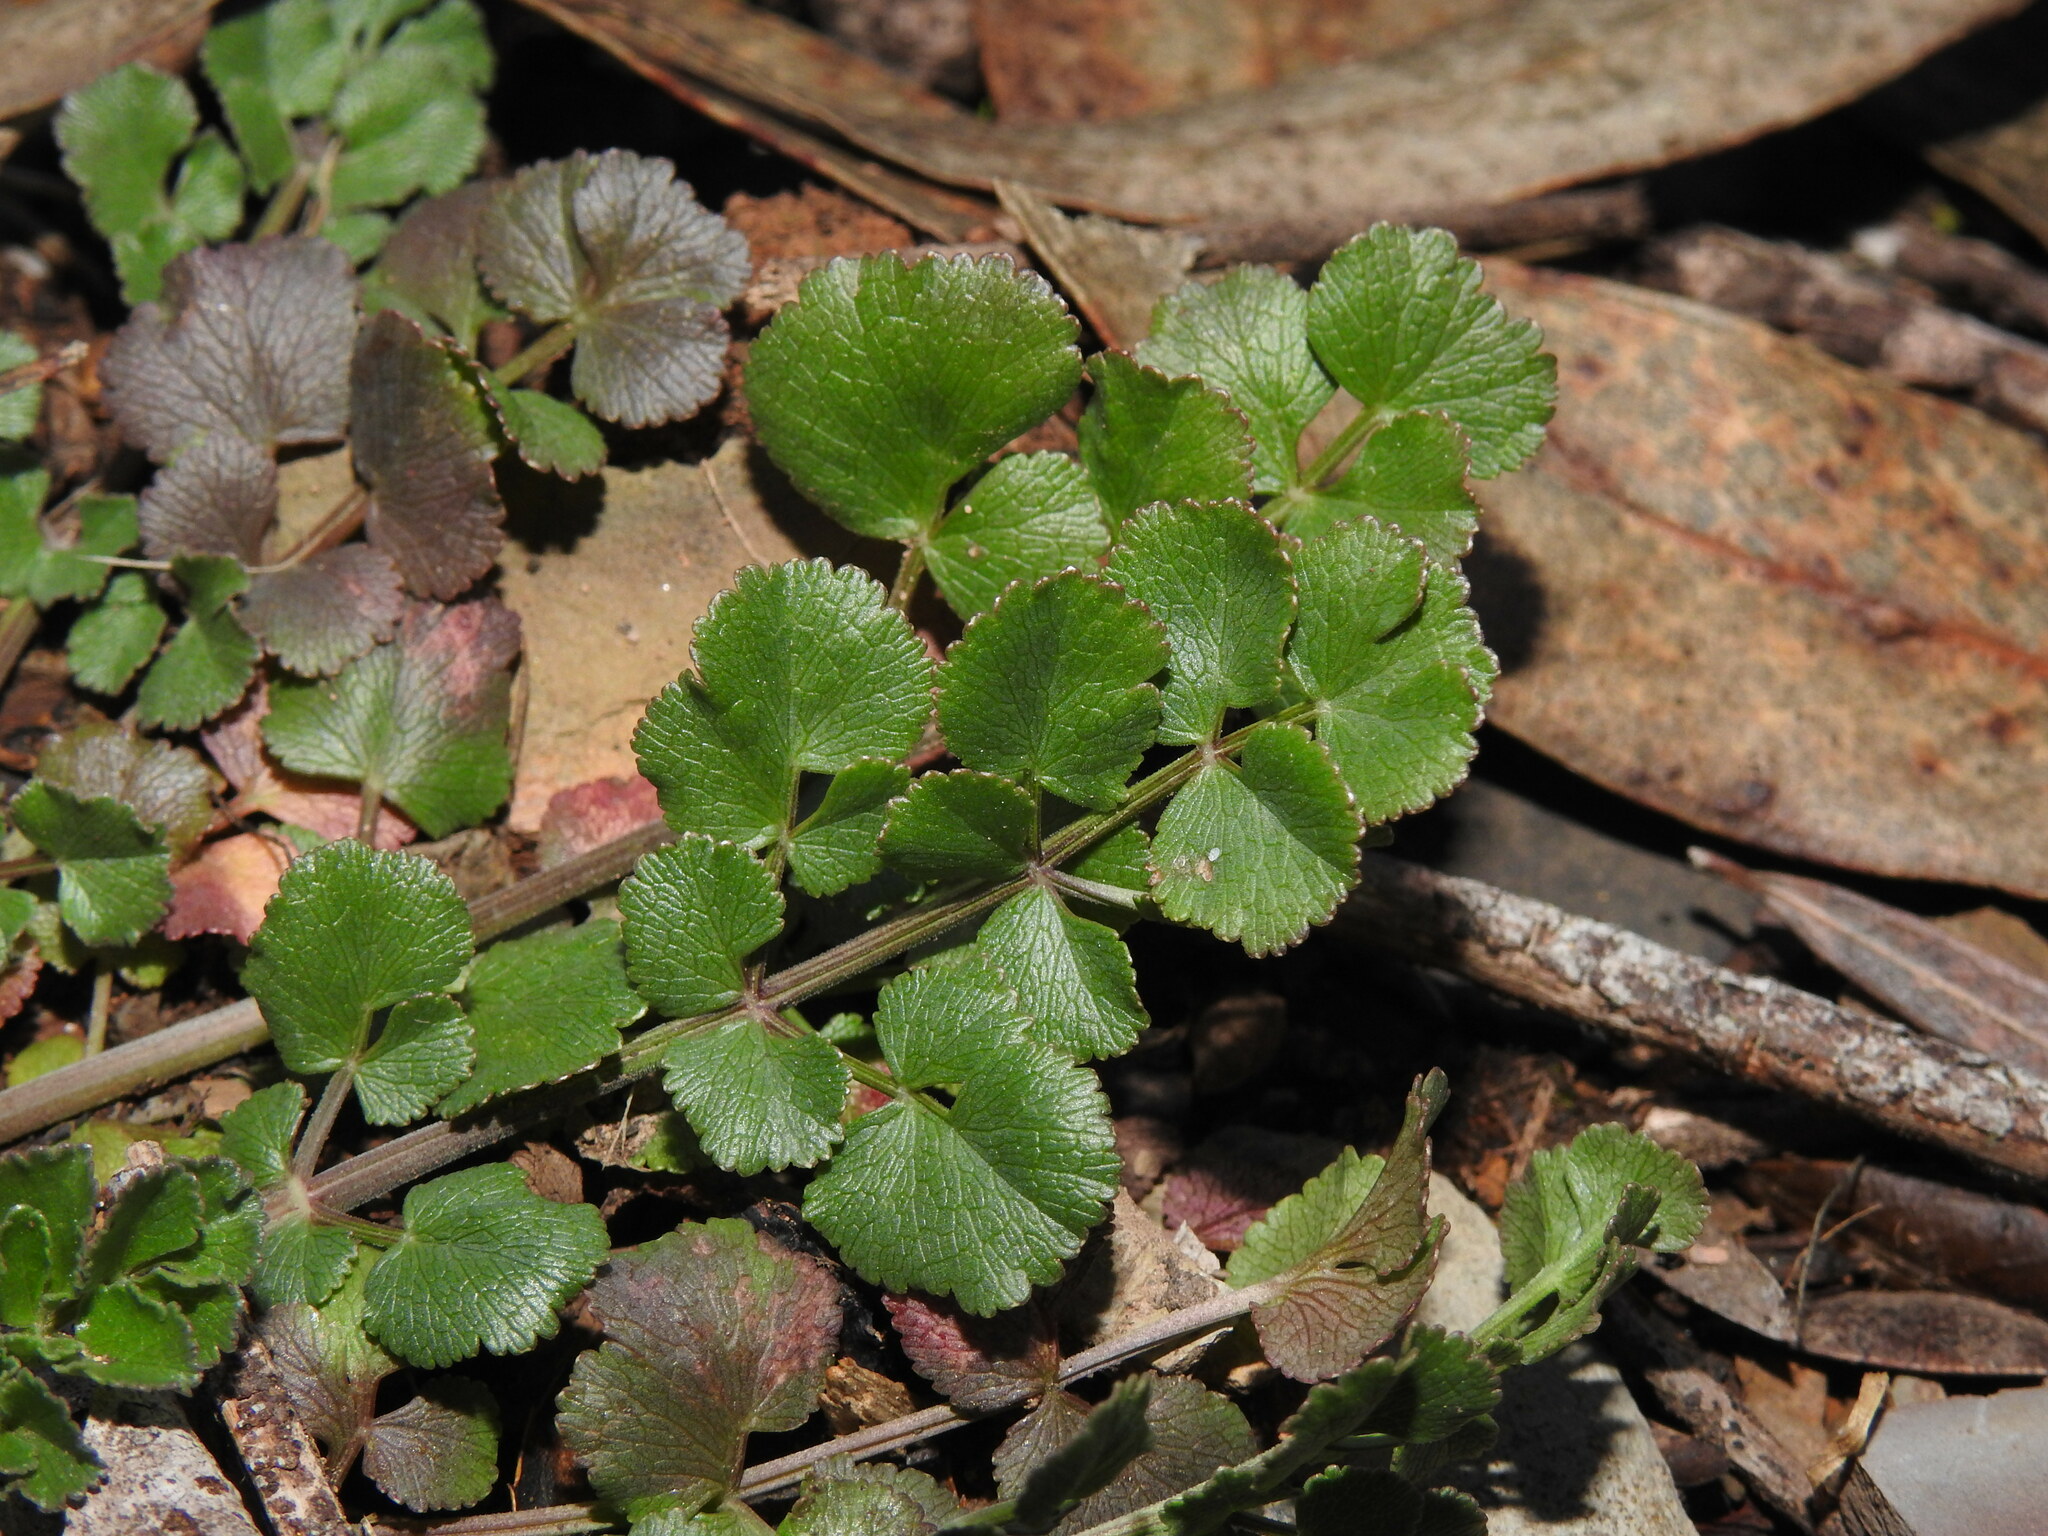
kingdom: Plantae
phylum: Tracheophyta
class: Magnoliopsida
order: Apiales
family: Apiaceae
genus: Pimpinella
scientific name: Pimpinella villosa
